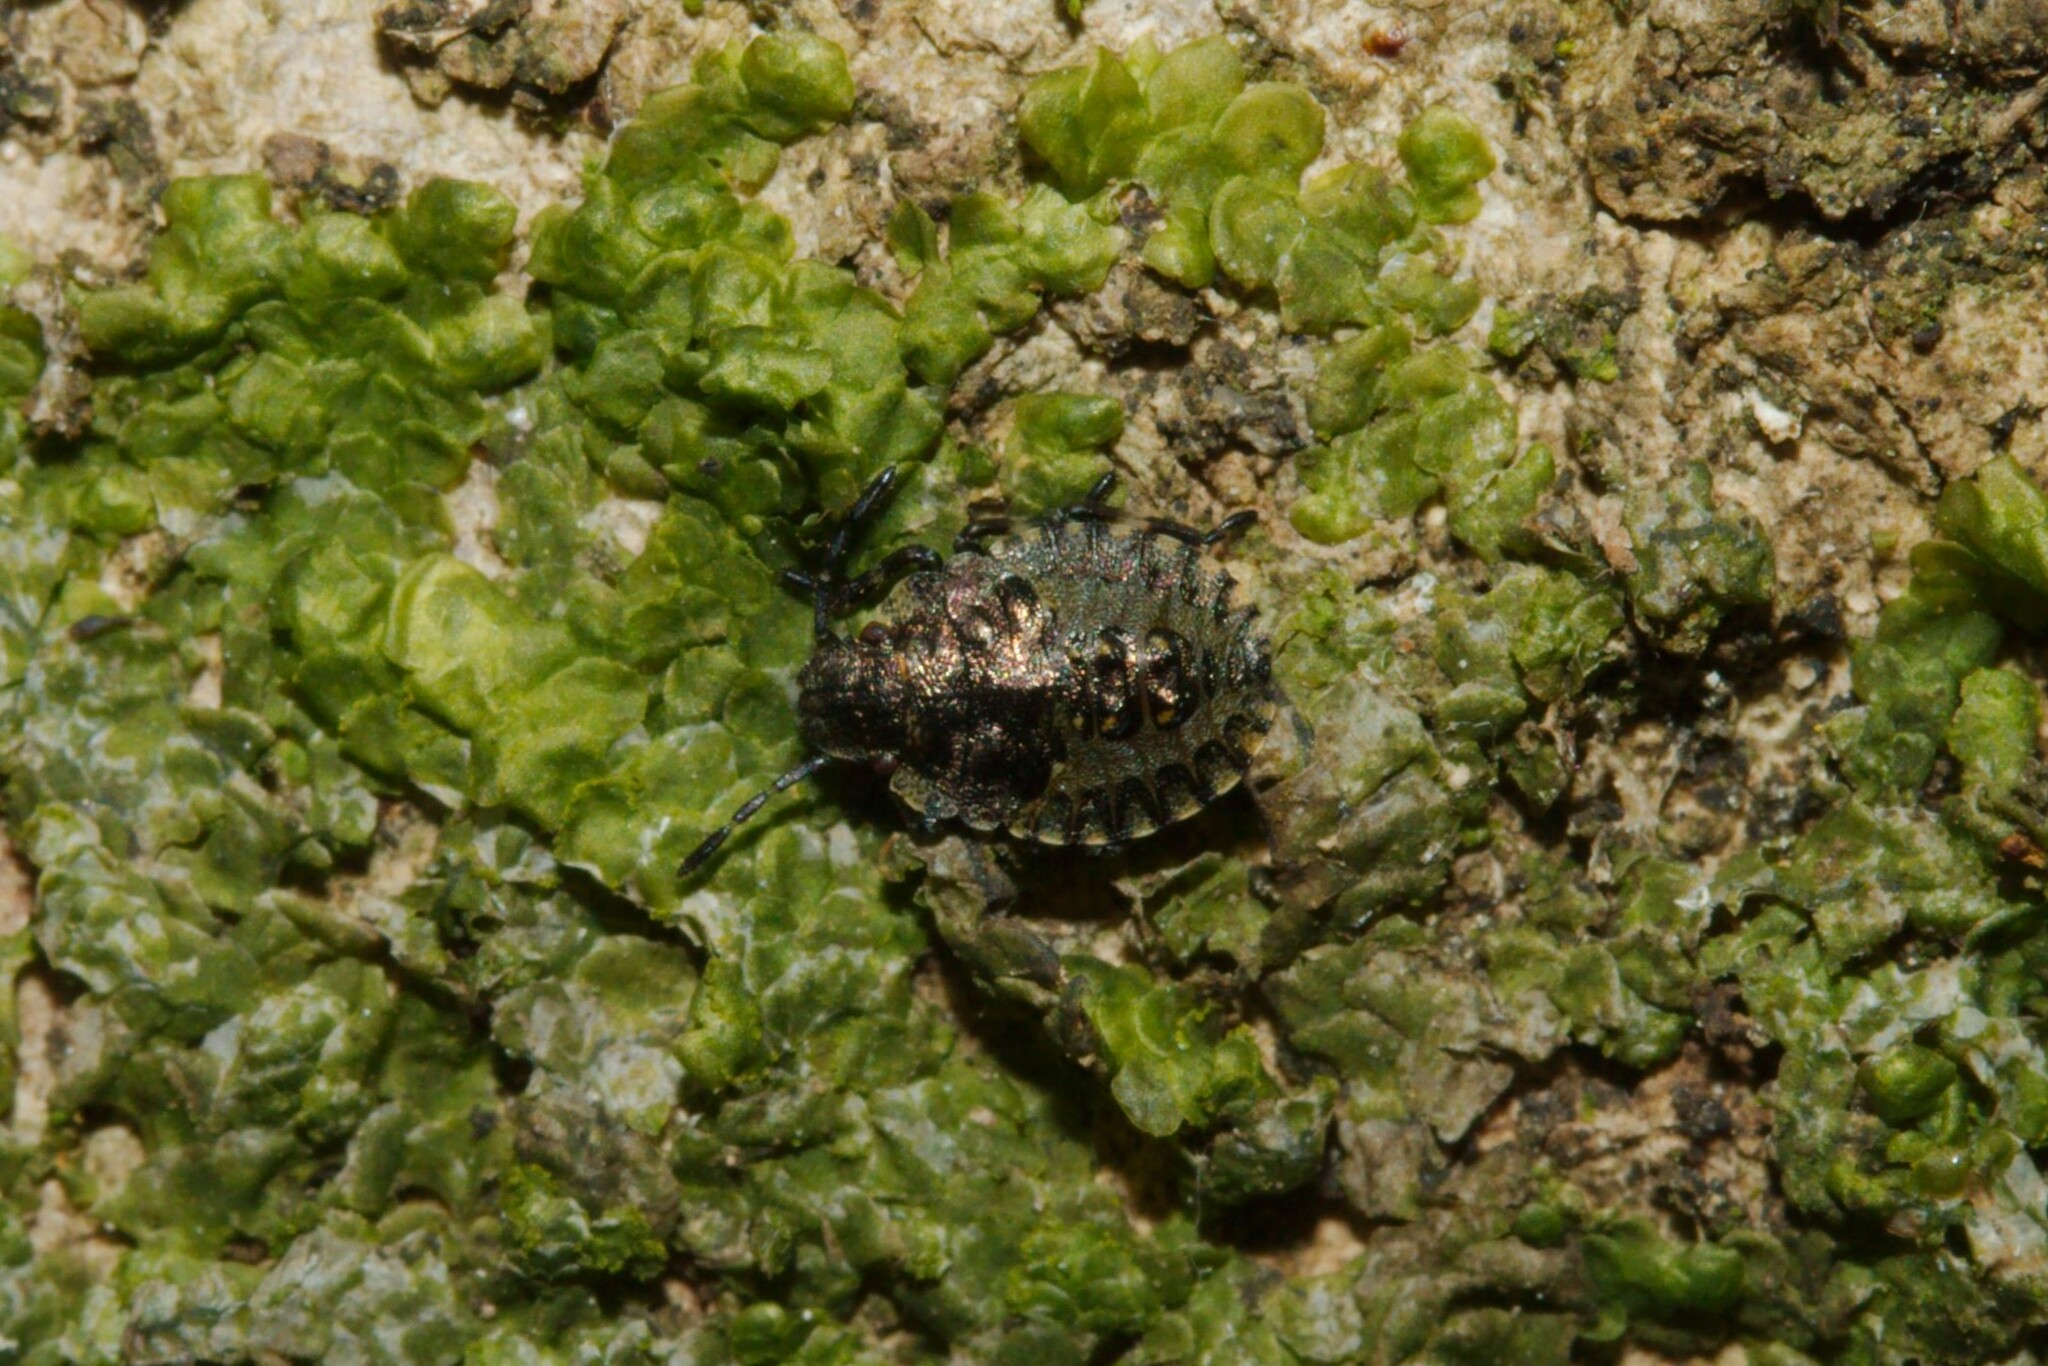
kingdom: Animalia
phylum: Arthropoda
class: Insecta
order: Hemiptera
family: Pentatomidae
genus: Pentatoma
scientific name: Pentatoma rufipes
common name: Forest bug
